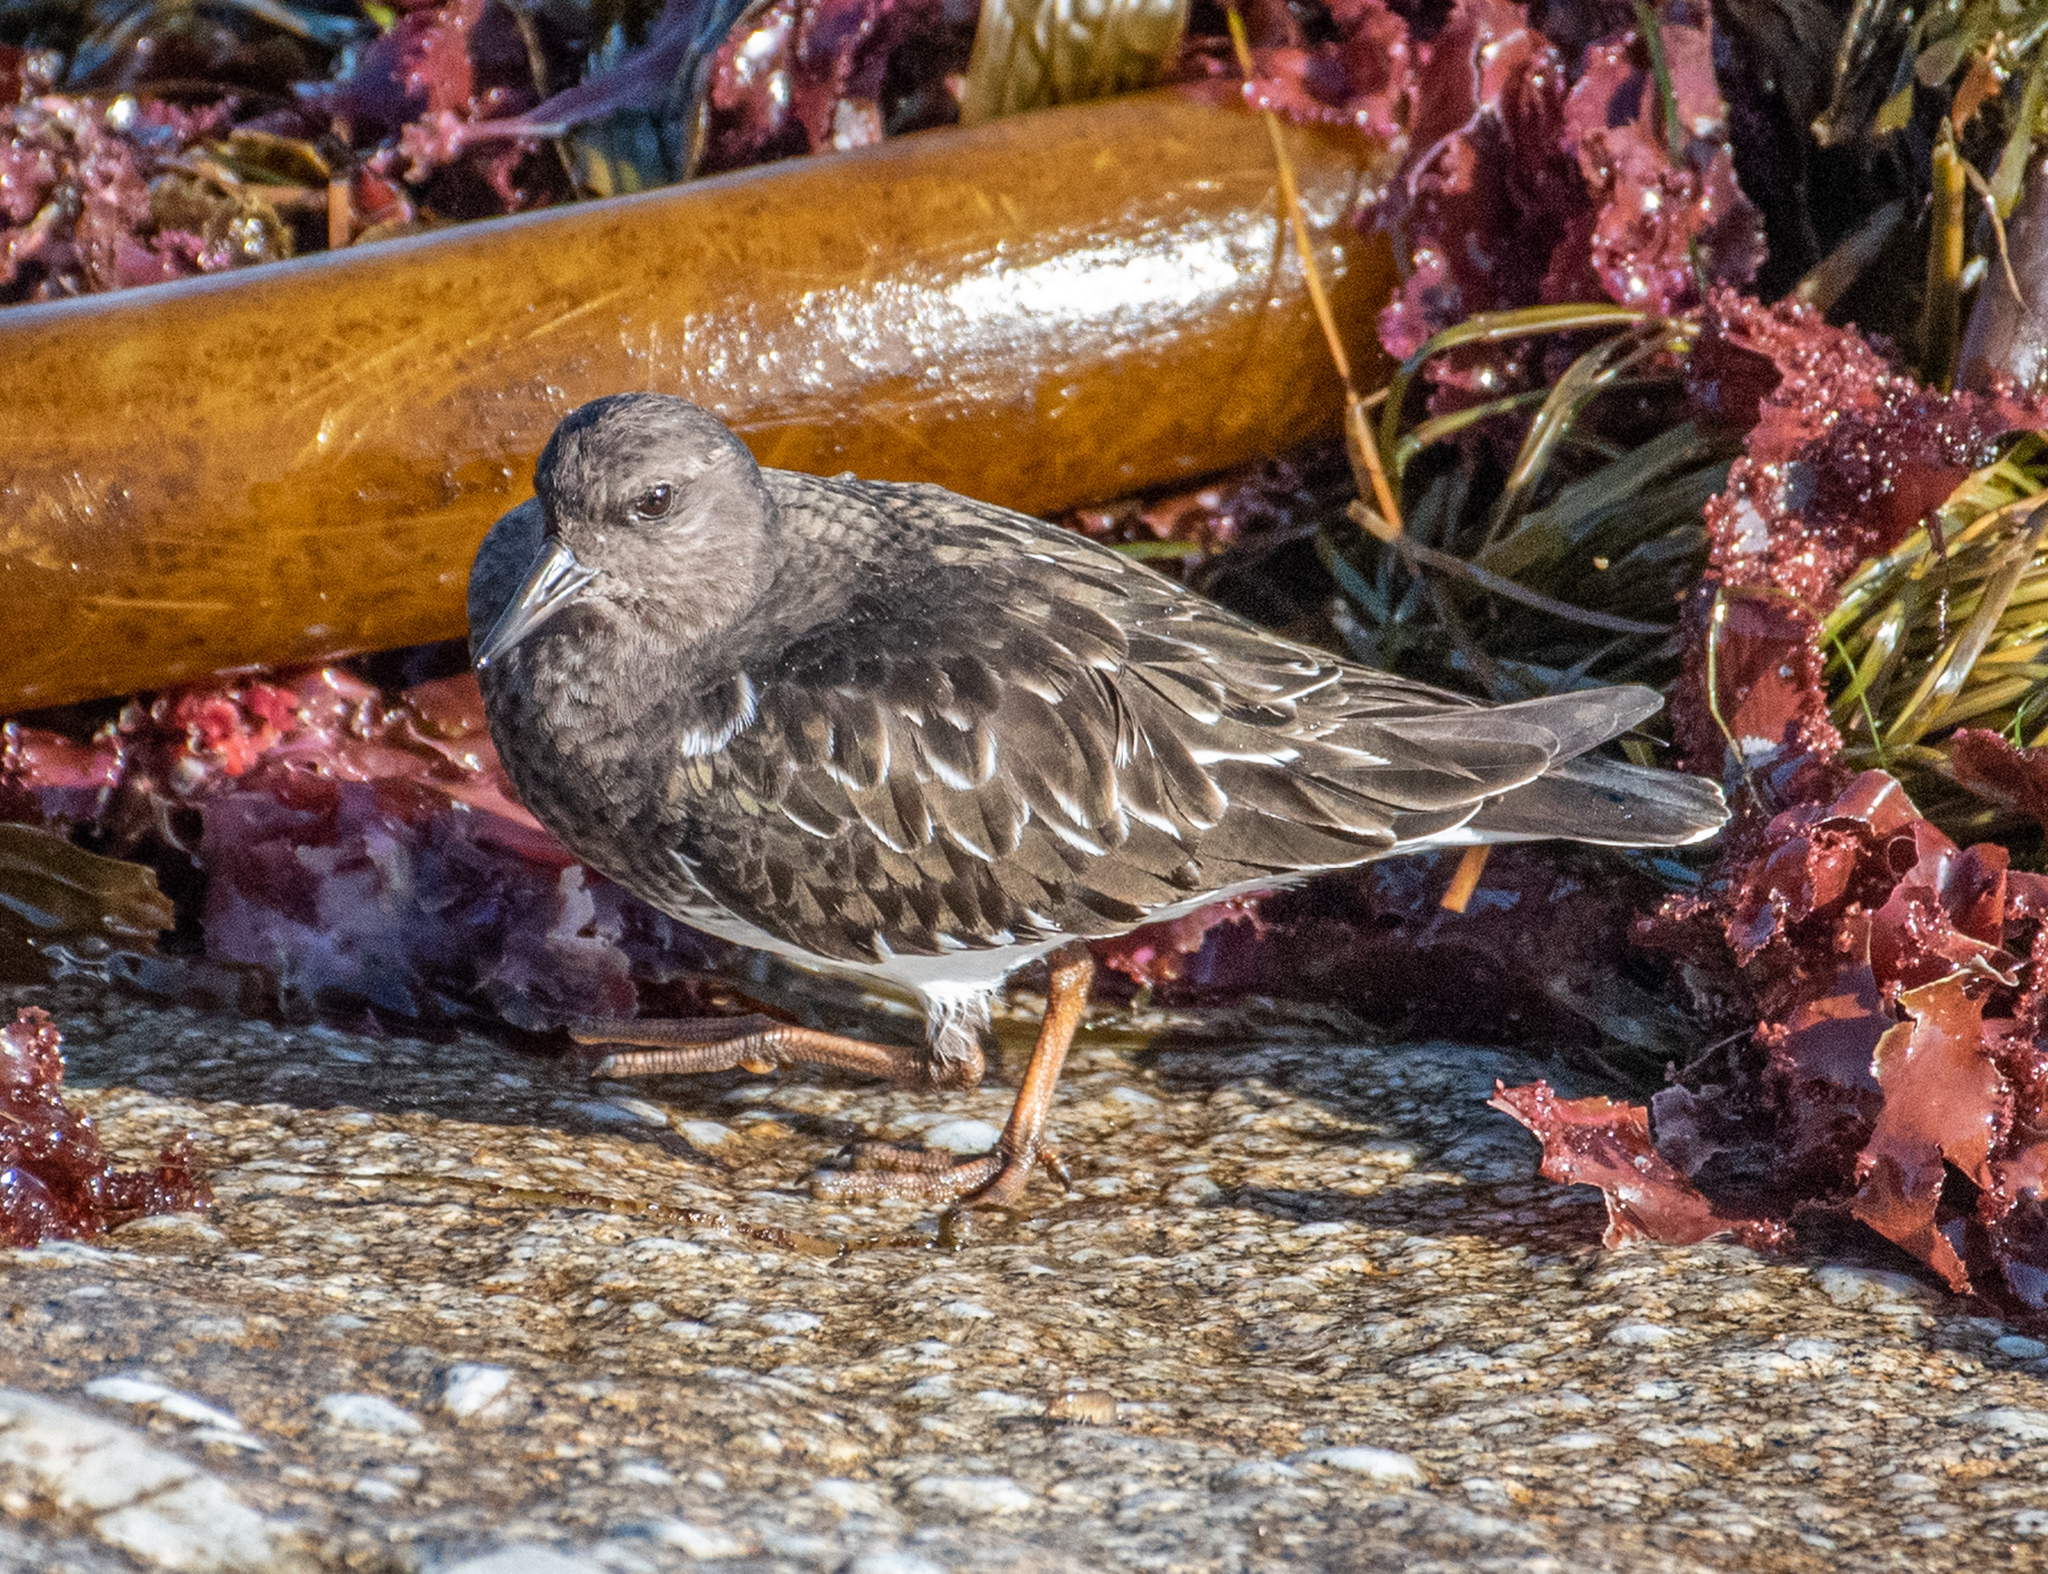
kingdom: Animalia
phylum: Chordata
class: Aves
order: Charadriiformes
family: Scolopacidae
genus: Arenaria
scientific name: Arenaria melanocephala
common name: Black turnstone
